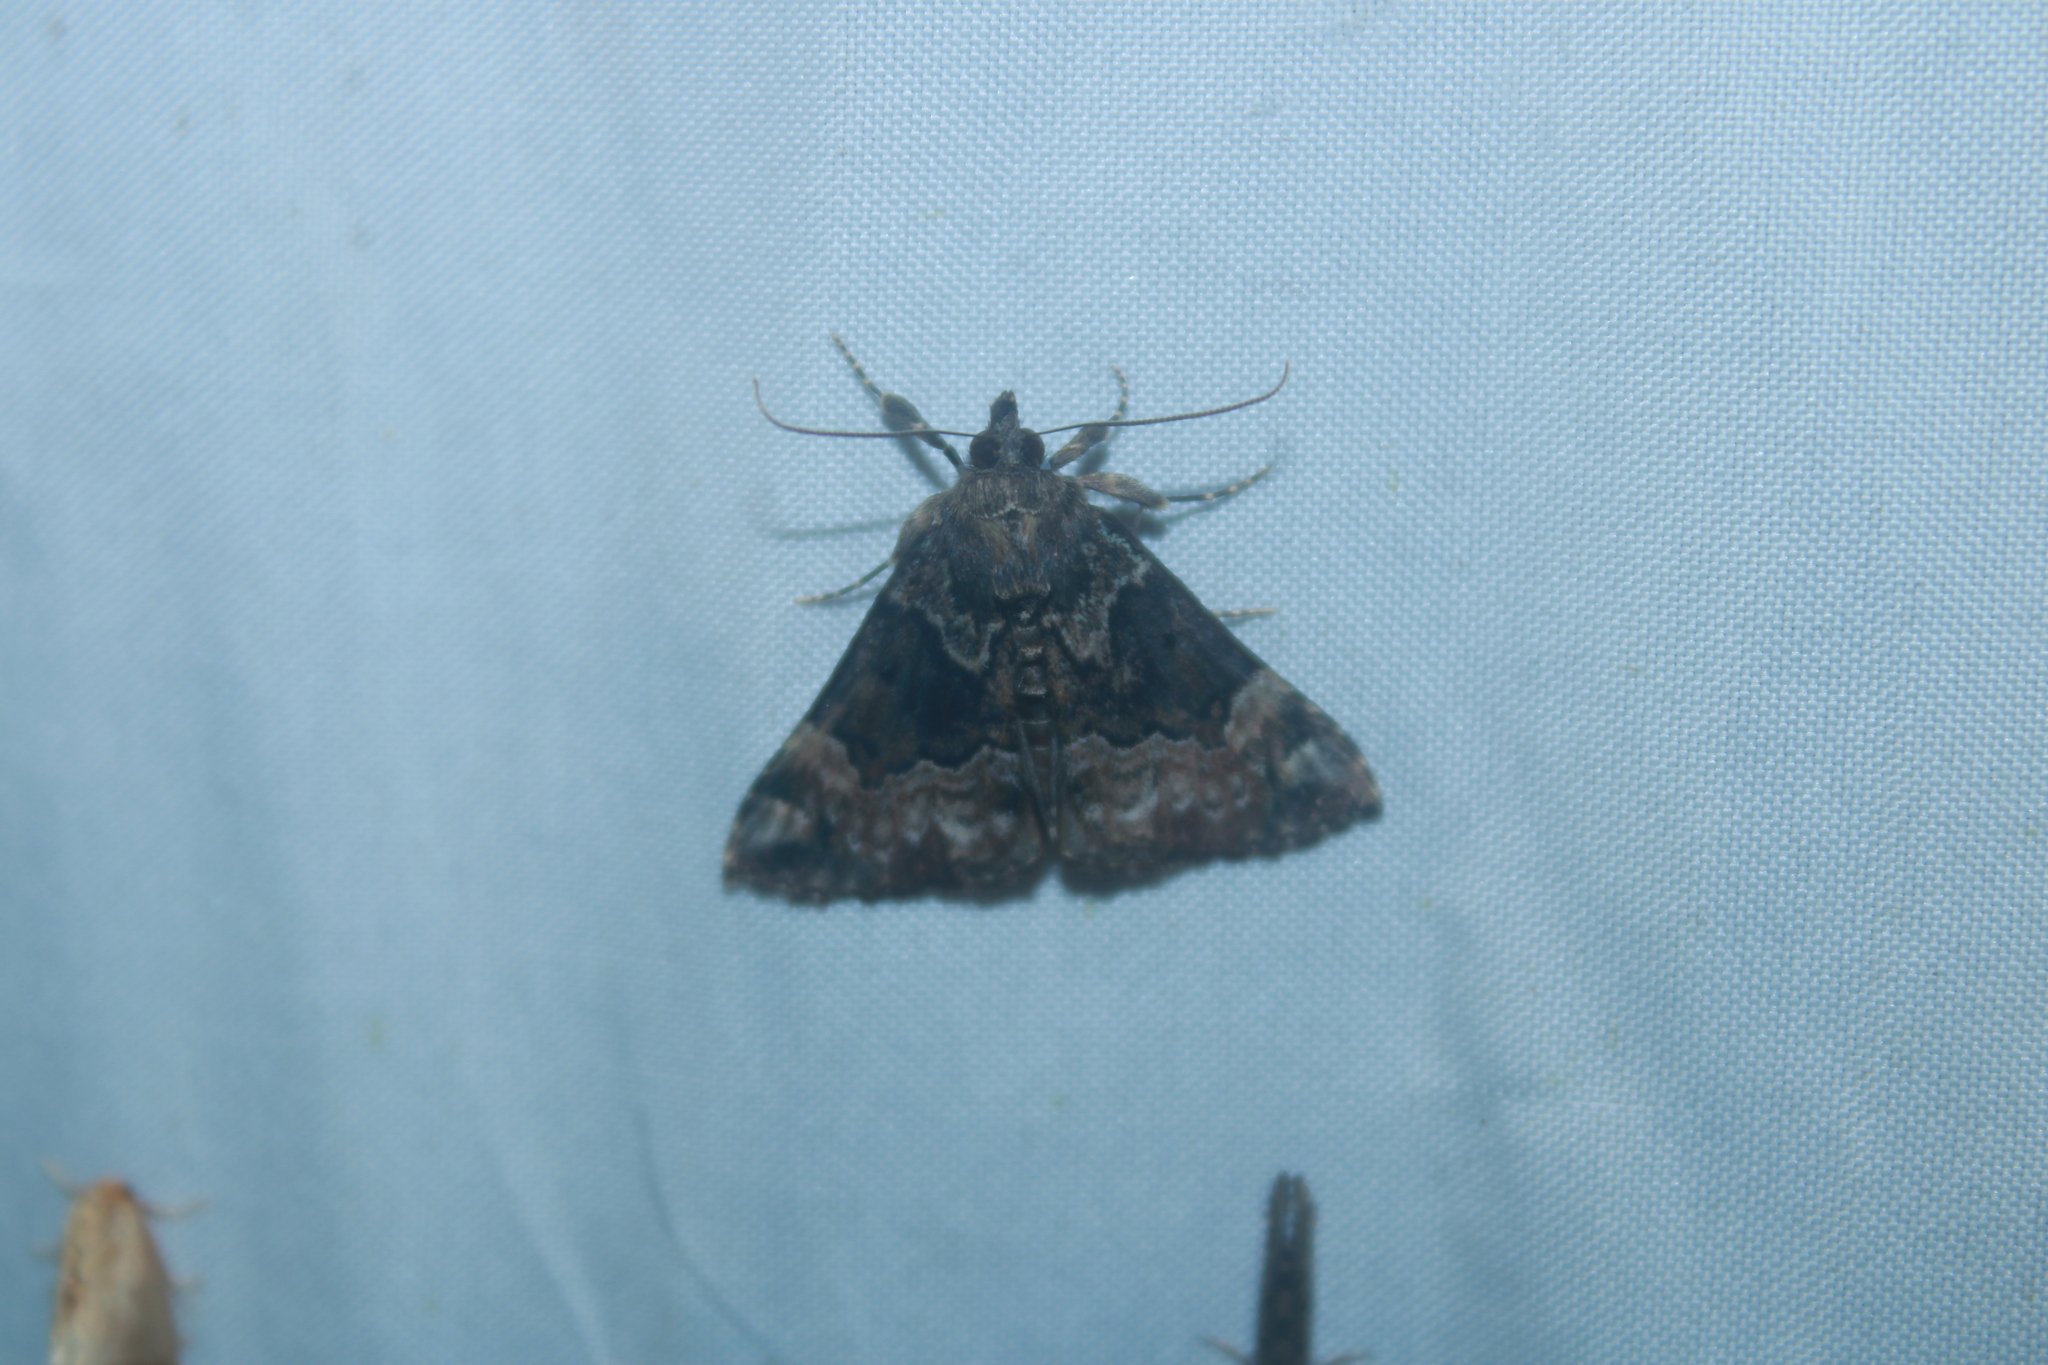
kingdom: Animalia
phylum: Arthropoda
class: Insecta
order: Lepidoptera
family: Erebidae
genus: Hypena
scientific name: Hypena palparia
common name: Mottled bomolocha moth
